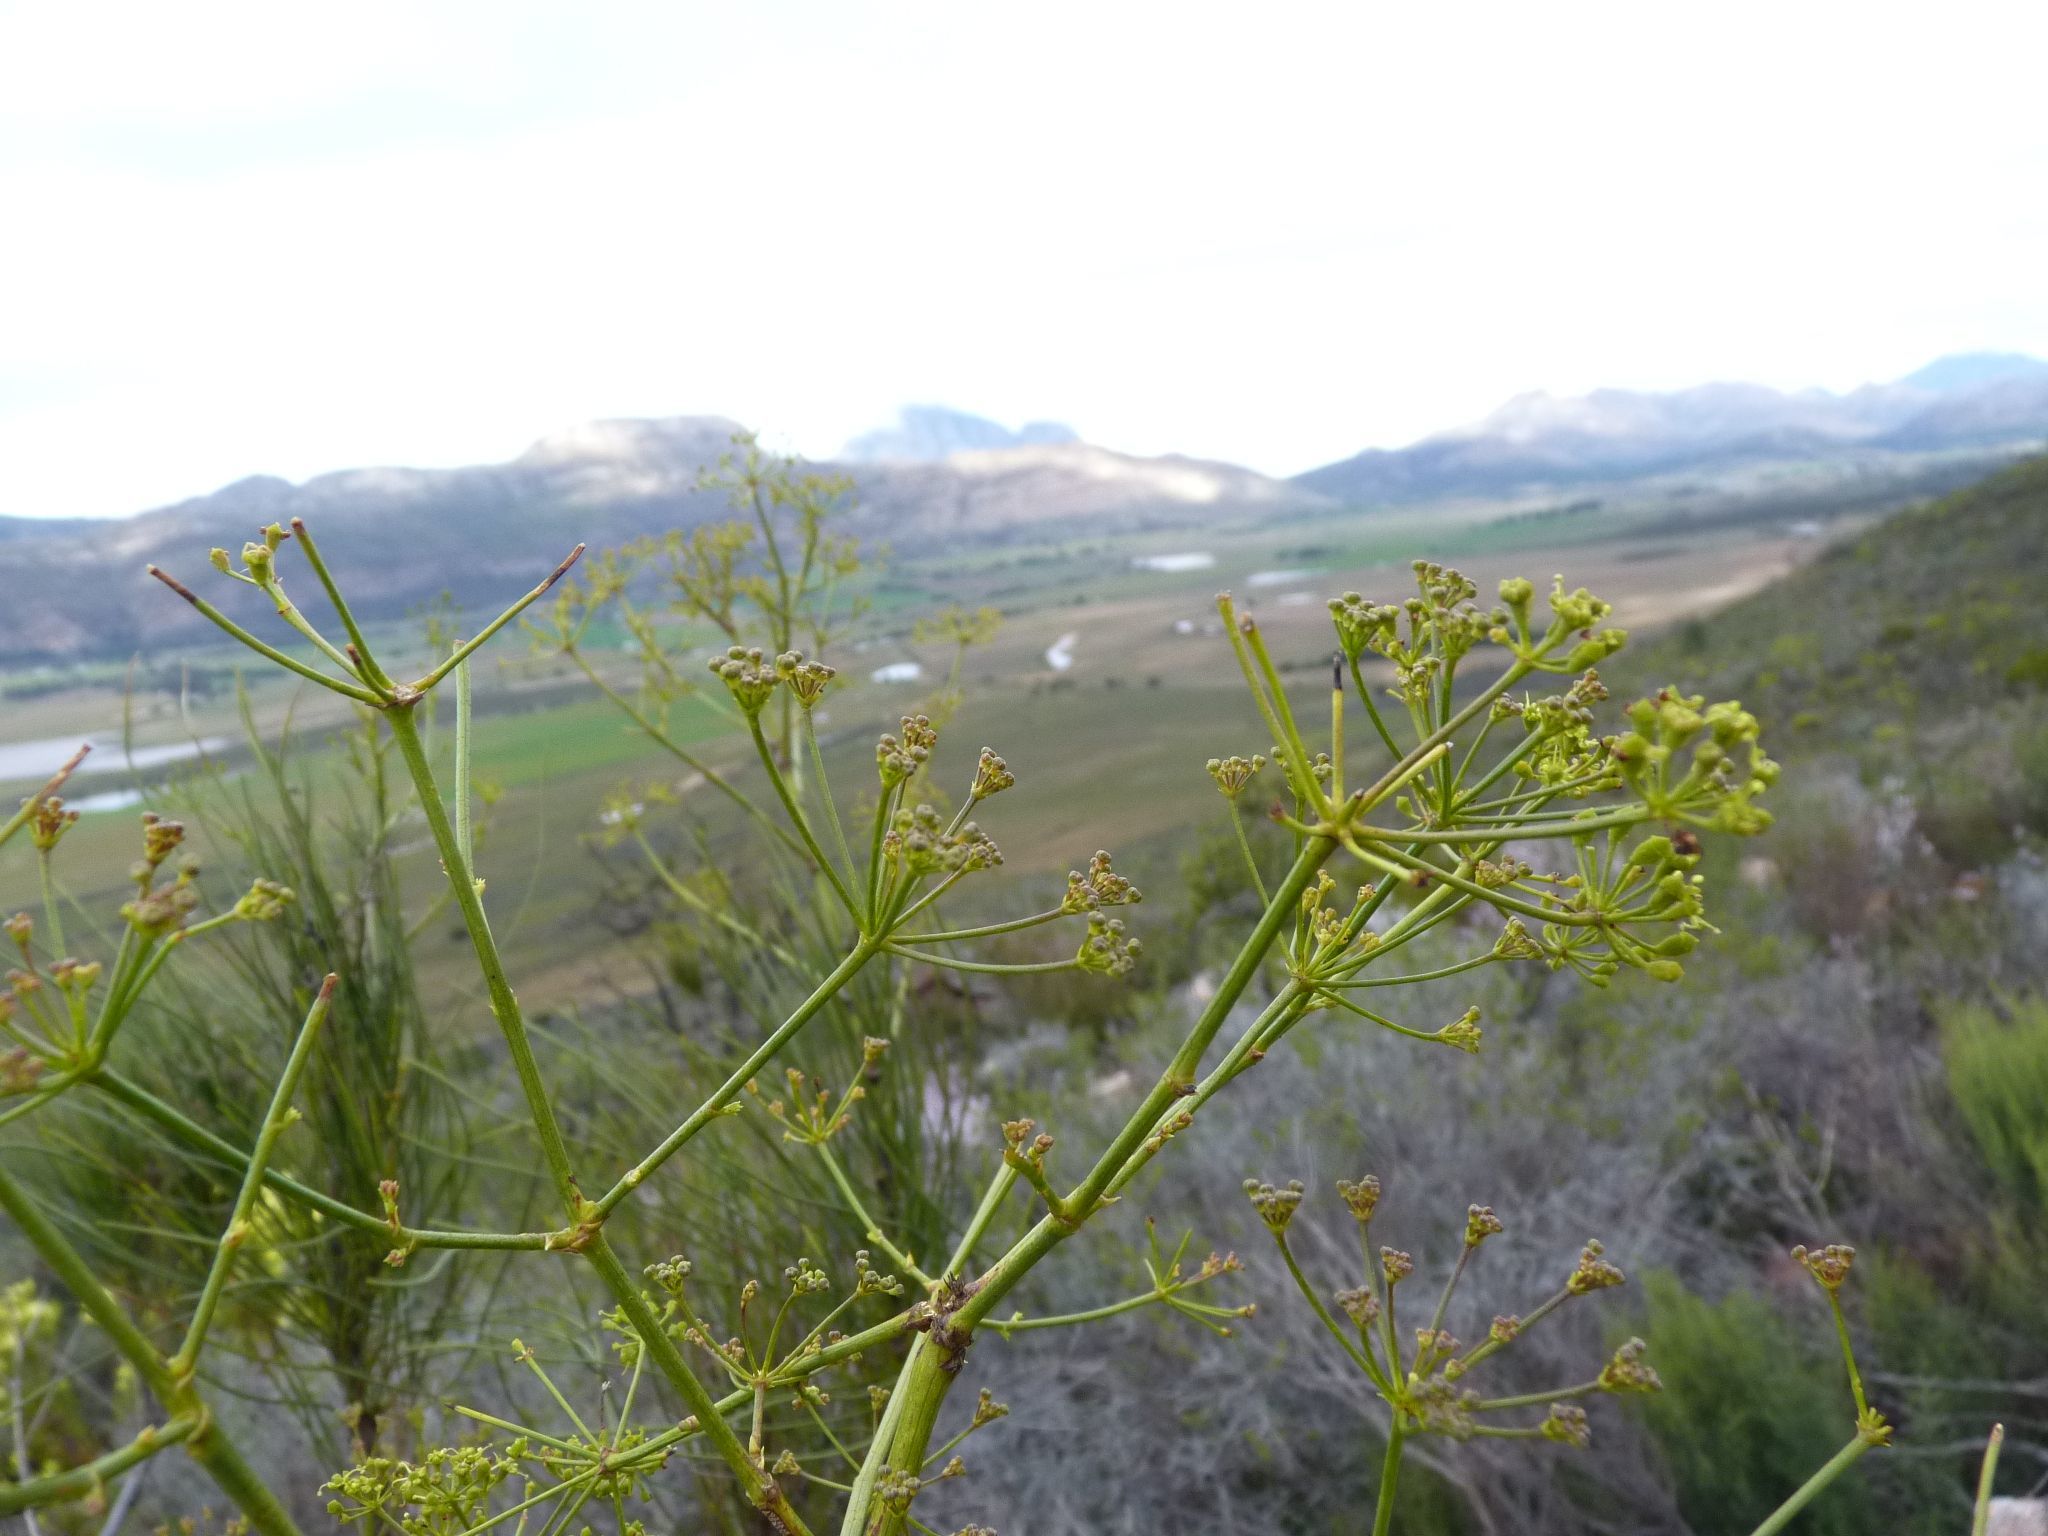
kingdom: Plantae
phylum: Tracheophyta
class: Magnoliopsida
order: Apiales
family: Apiaceae
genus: Anginon
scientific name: Anginon difforme
